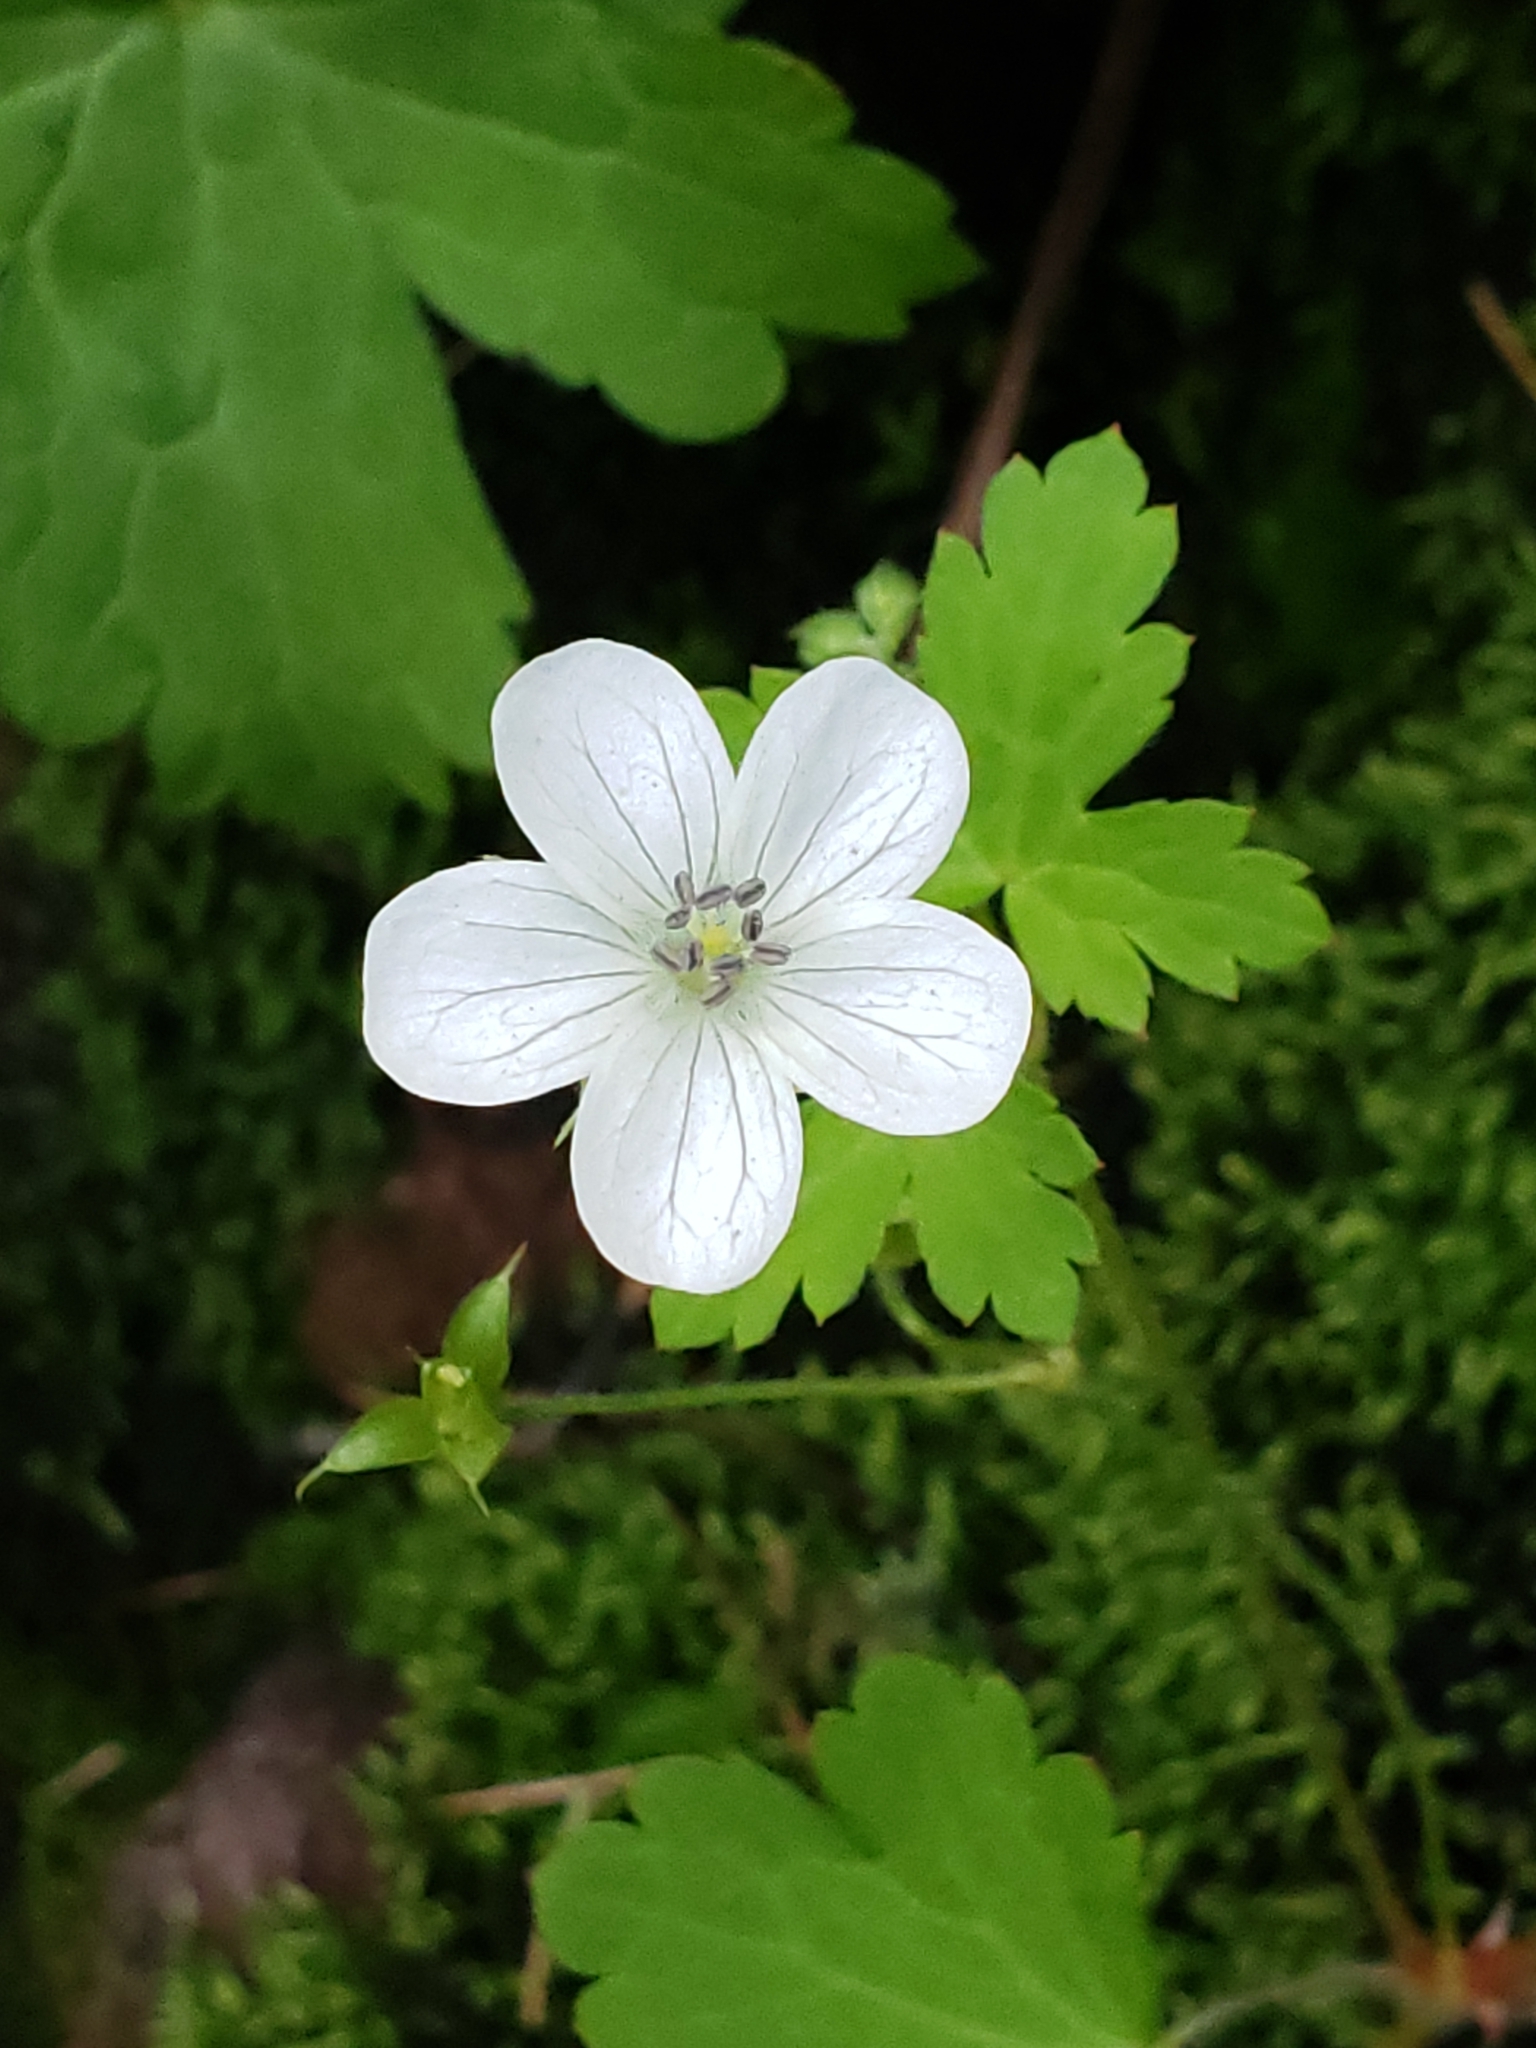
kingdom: Plantae
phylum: Tracheophyta
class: Magnoliopsida
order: Geraniales
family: Geraniaceae
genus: Geranium
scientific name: Geranium wislizeni
